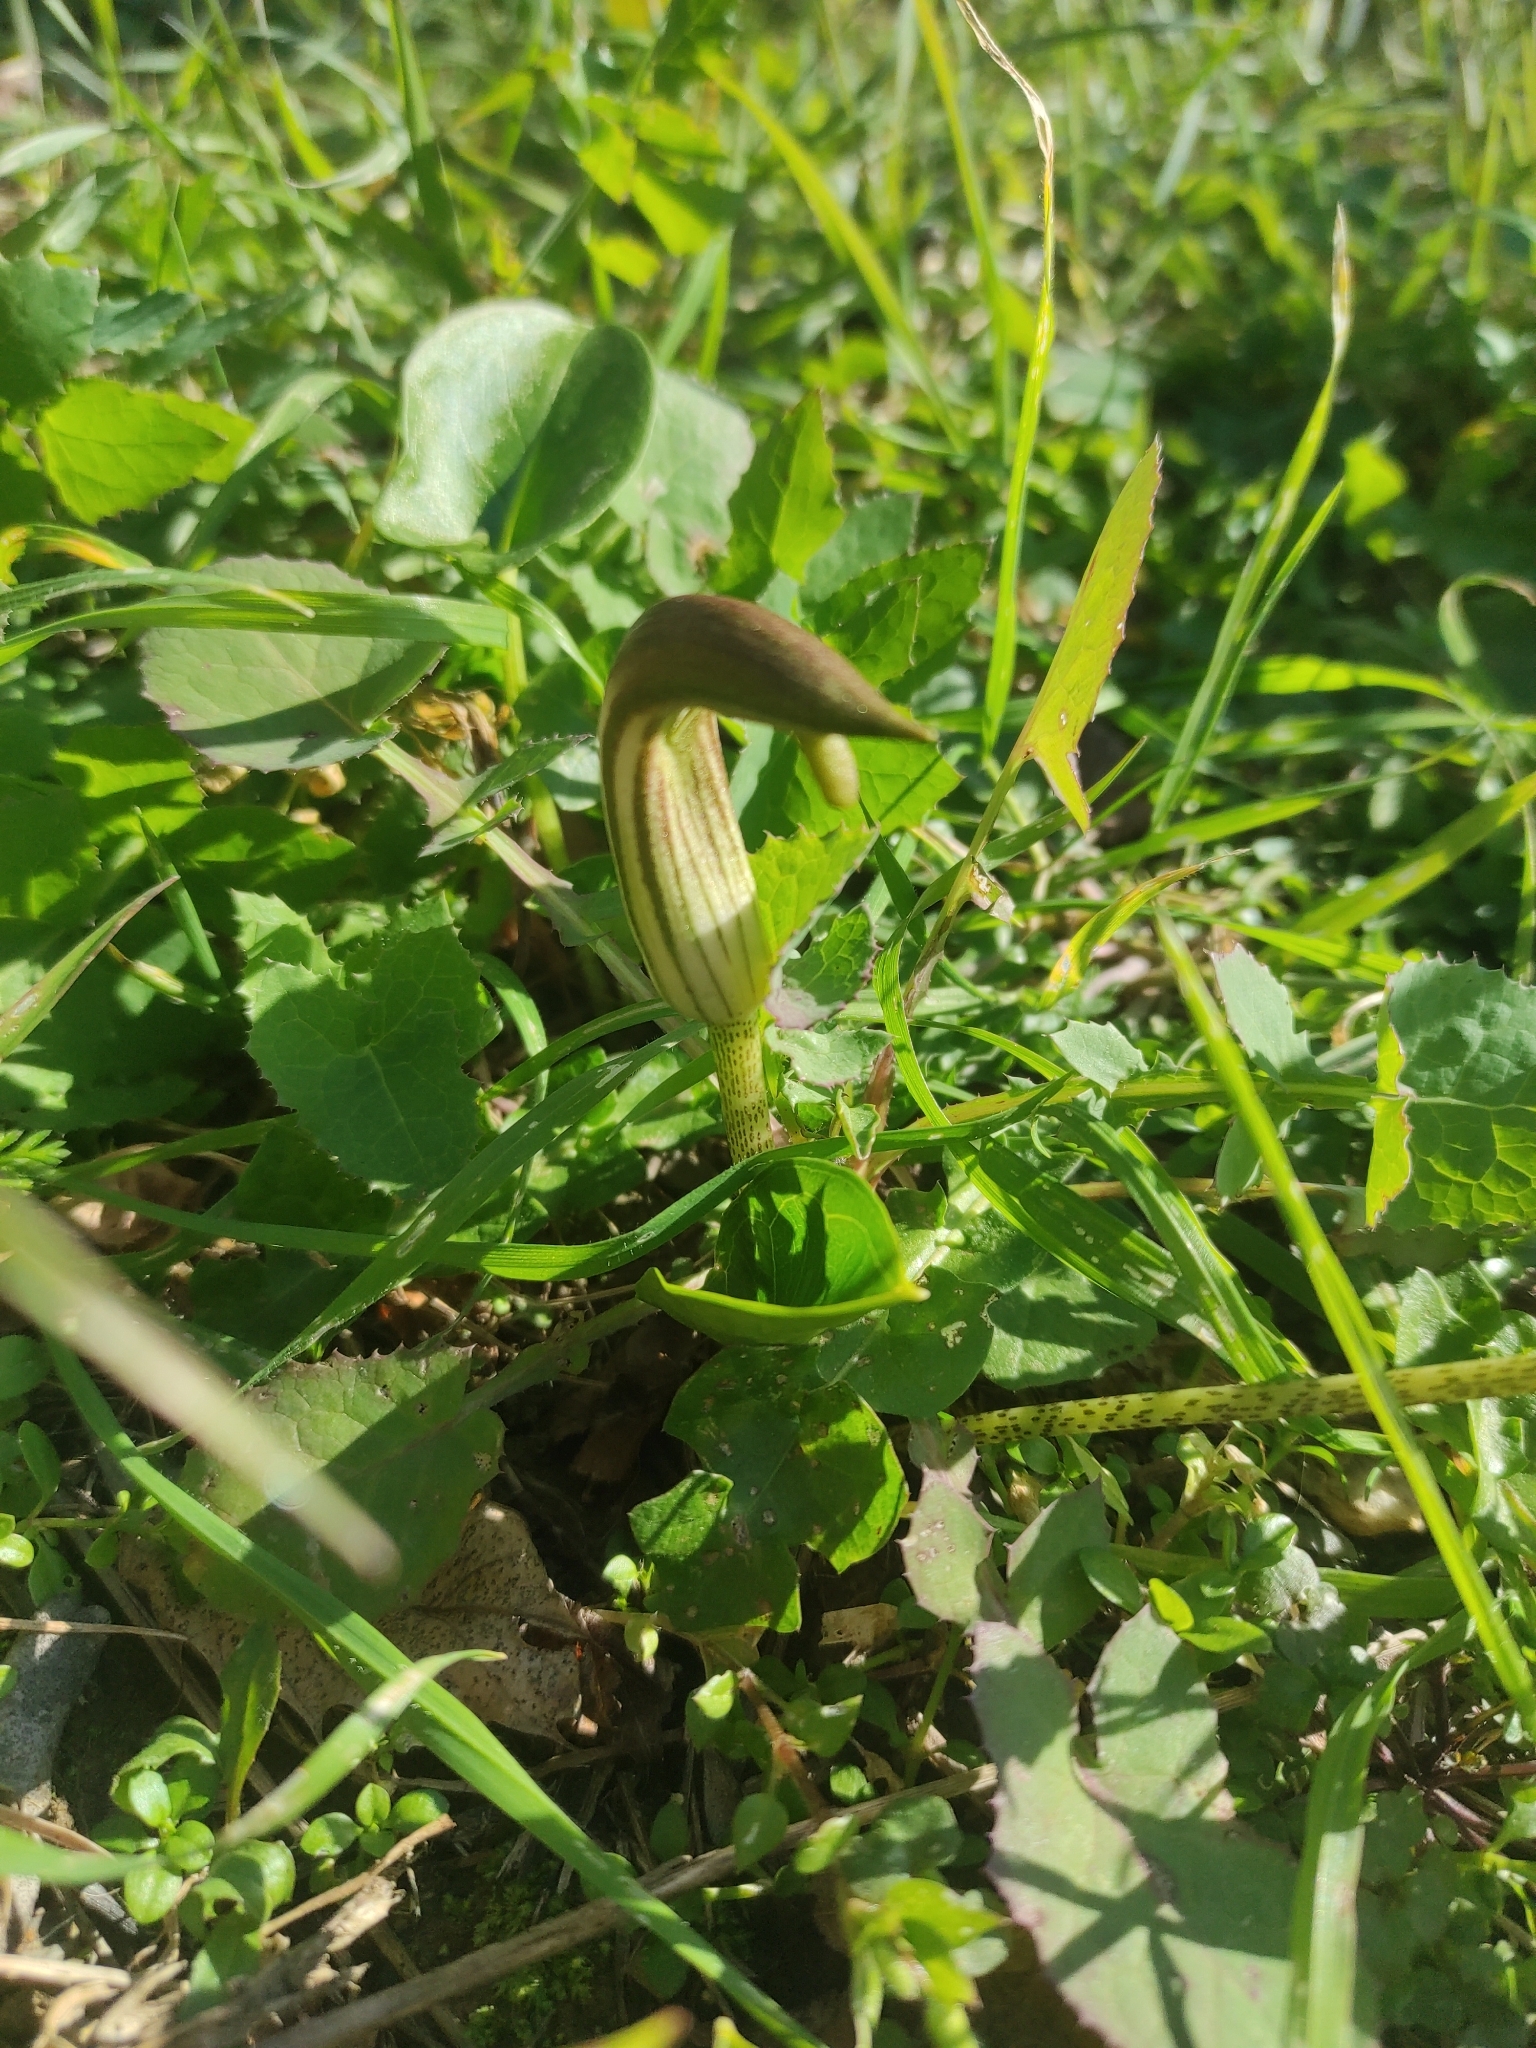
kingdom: Plantae
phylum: Tracheophyta
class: Liliopsida
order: Alismatales
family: Araceae
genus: Arisarum
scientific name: Arisarum vulgare
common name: Common arisarum
